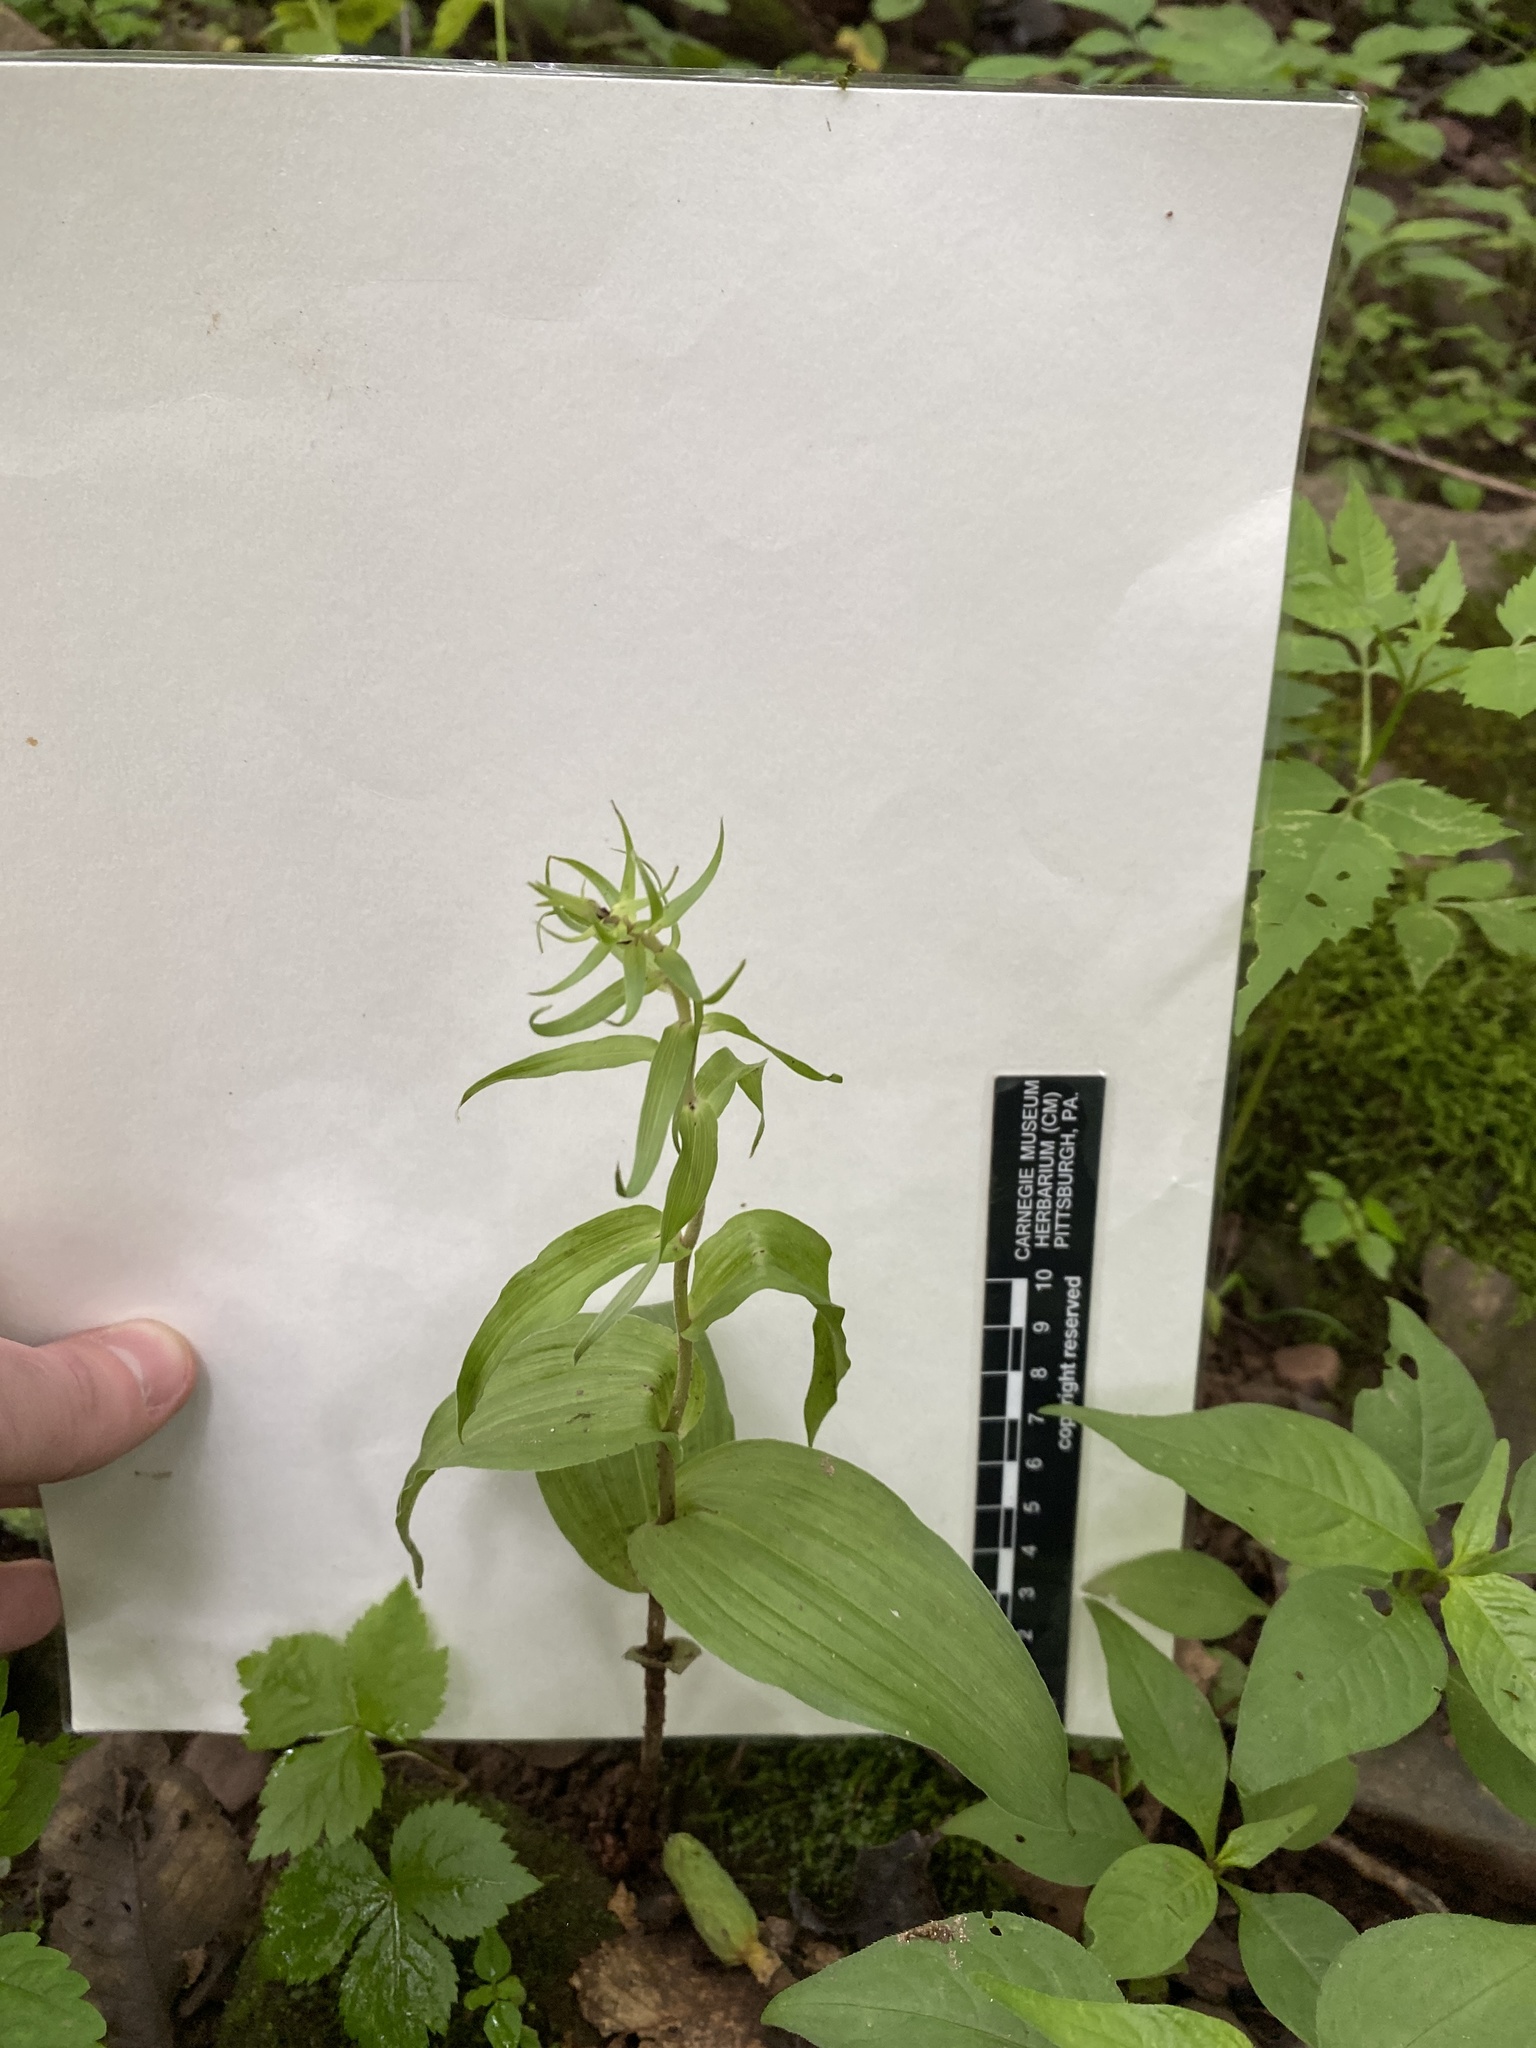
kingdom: Plantae
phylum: Tracheophyta
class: Liliopsida
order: Asparagales
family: Orchidaceae
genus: Epipactis
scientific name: Epipactis helleborine
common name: Broad-leaved helleborine
